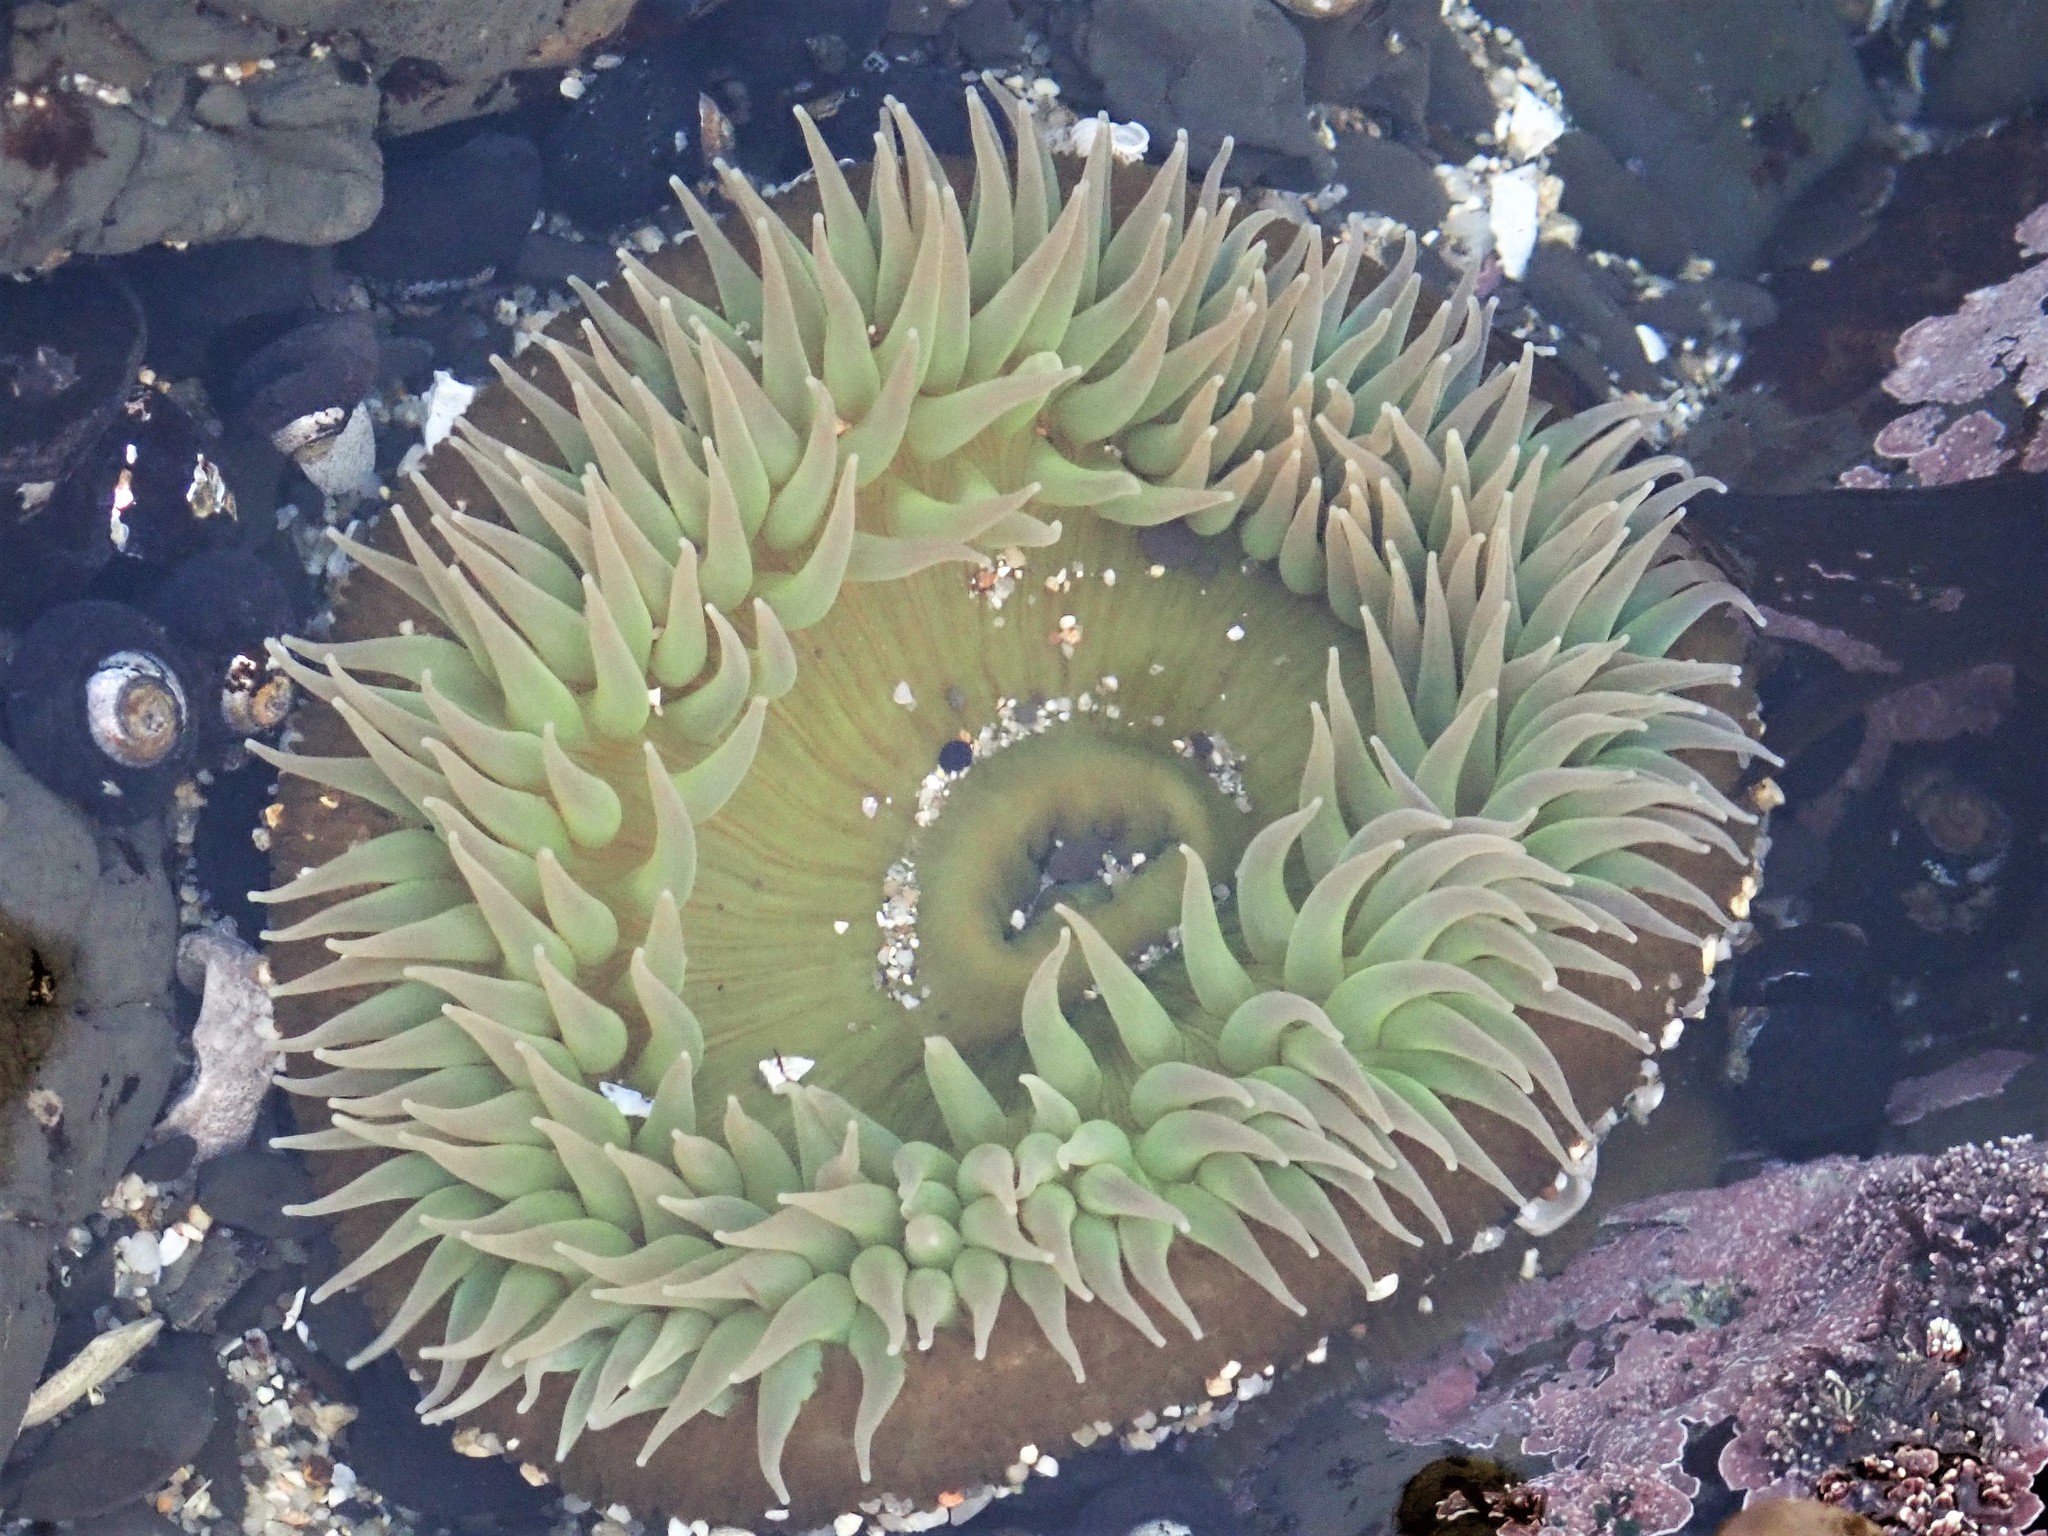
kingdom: Animalia
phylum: Cnidaria
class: Anthozoa
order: Actiniaria
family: Actiniidae
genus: Anthopleura
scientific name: Anthopleura xanthogrammica
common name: Giant green anemone
